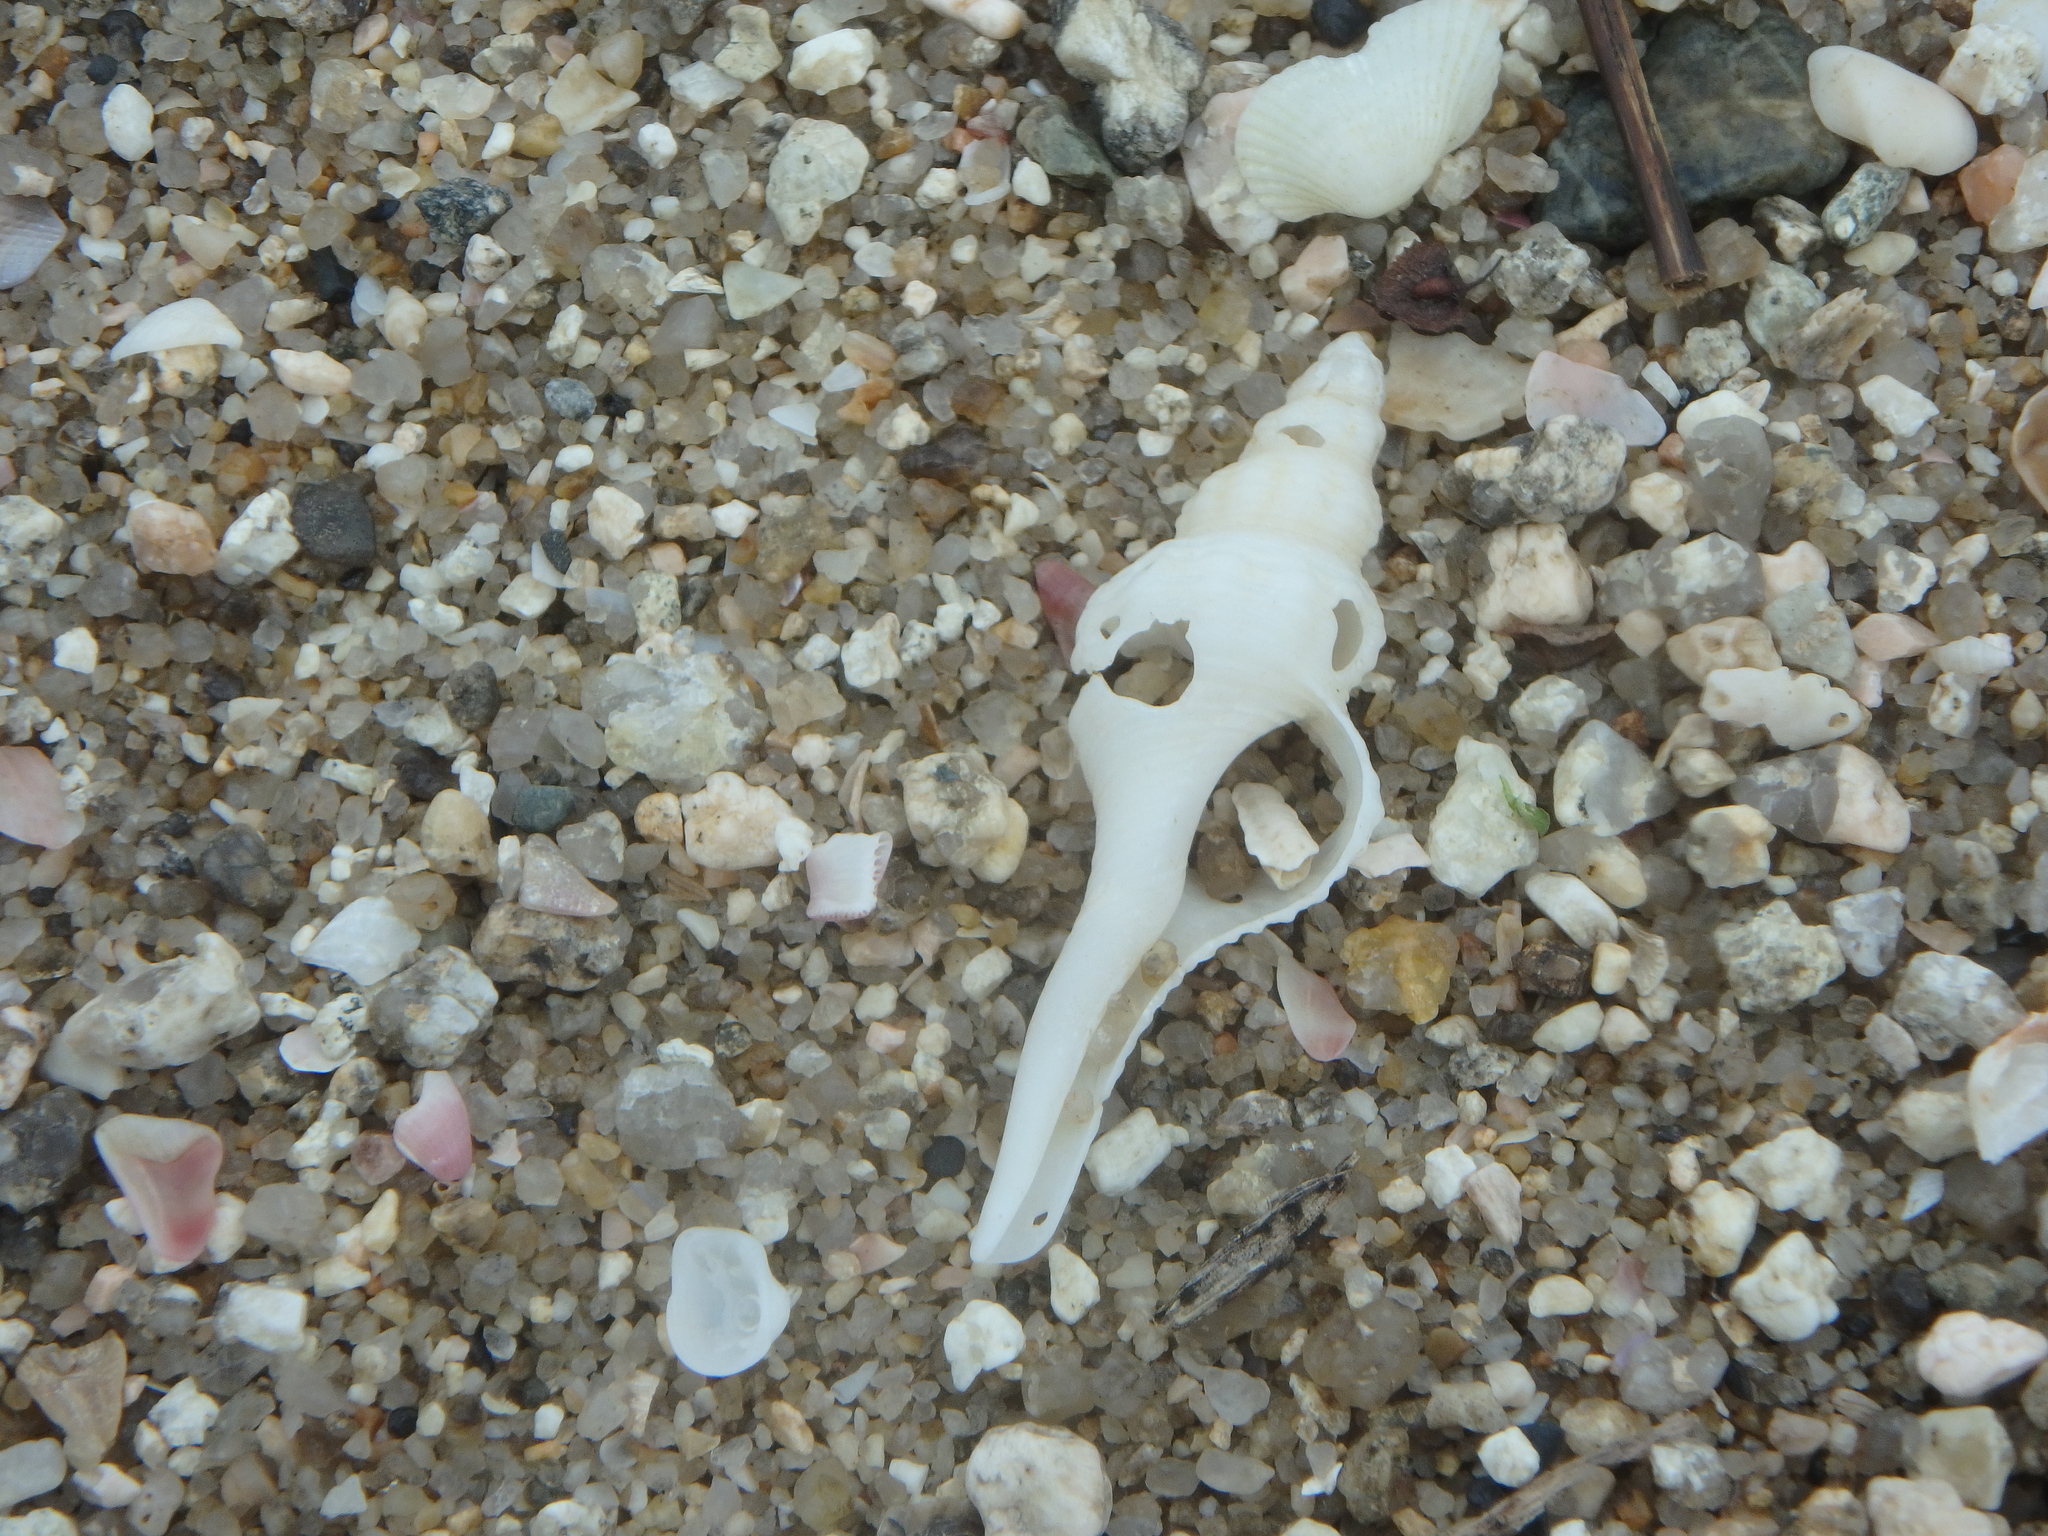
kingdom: Animalia
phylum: Mollusca
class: Gastropoda
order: Neogastropoda
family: Fasciolariidae
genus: Fusinus
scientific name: Fusinus perplexus
